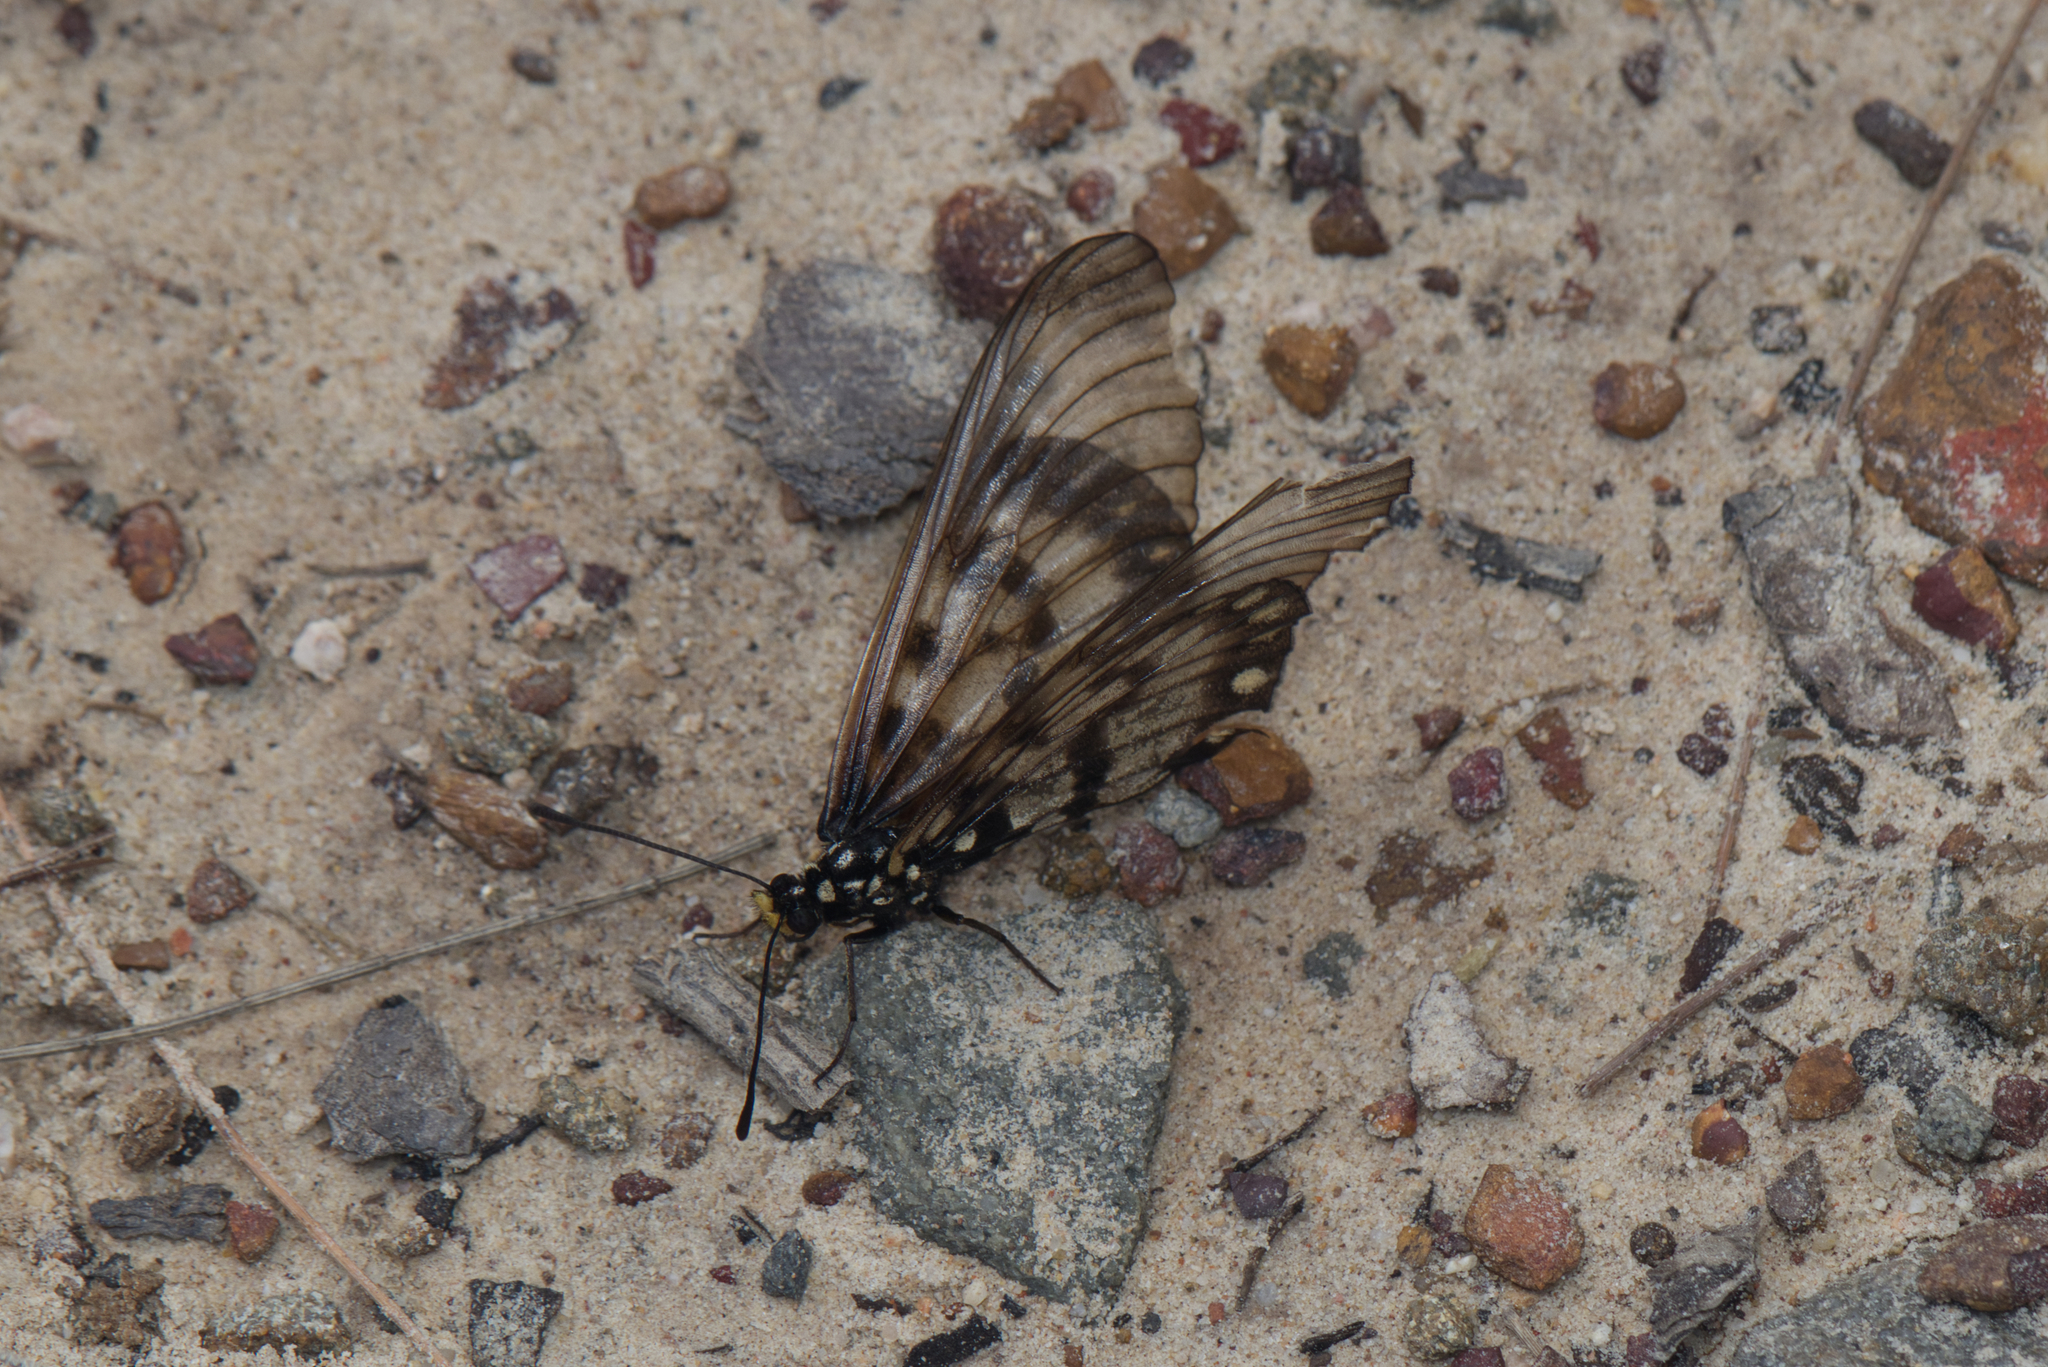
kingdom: Animalia
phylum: Arthropoda
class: Insecta
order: Lepidoptera
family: Nymphalidae
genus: Acraea
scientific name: Acraea andromacha
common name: Glasswing
